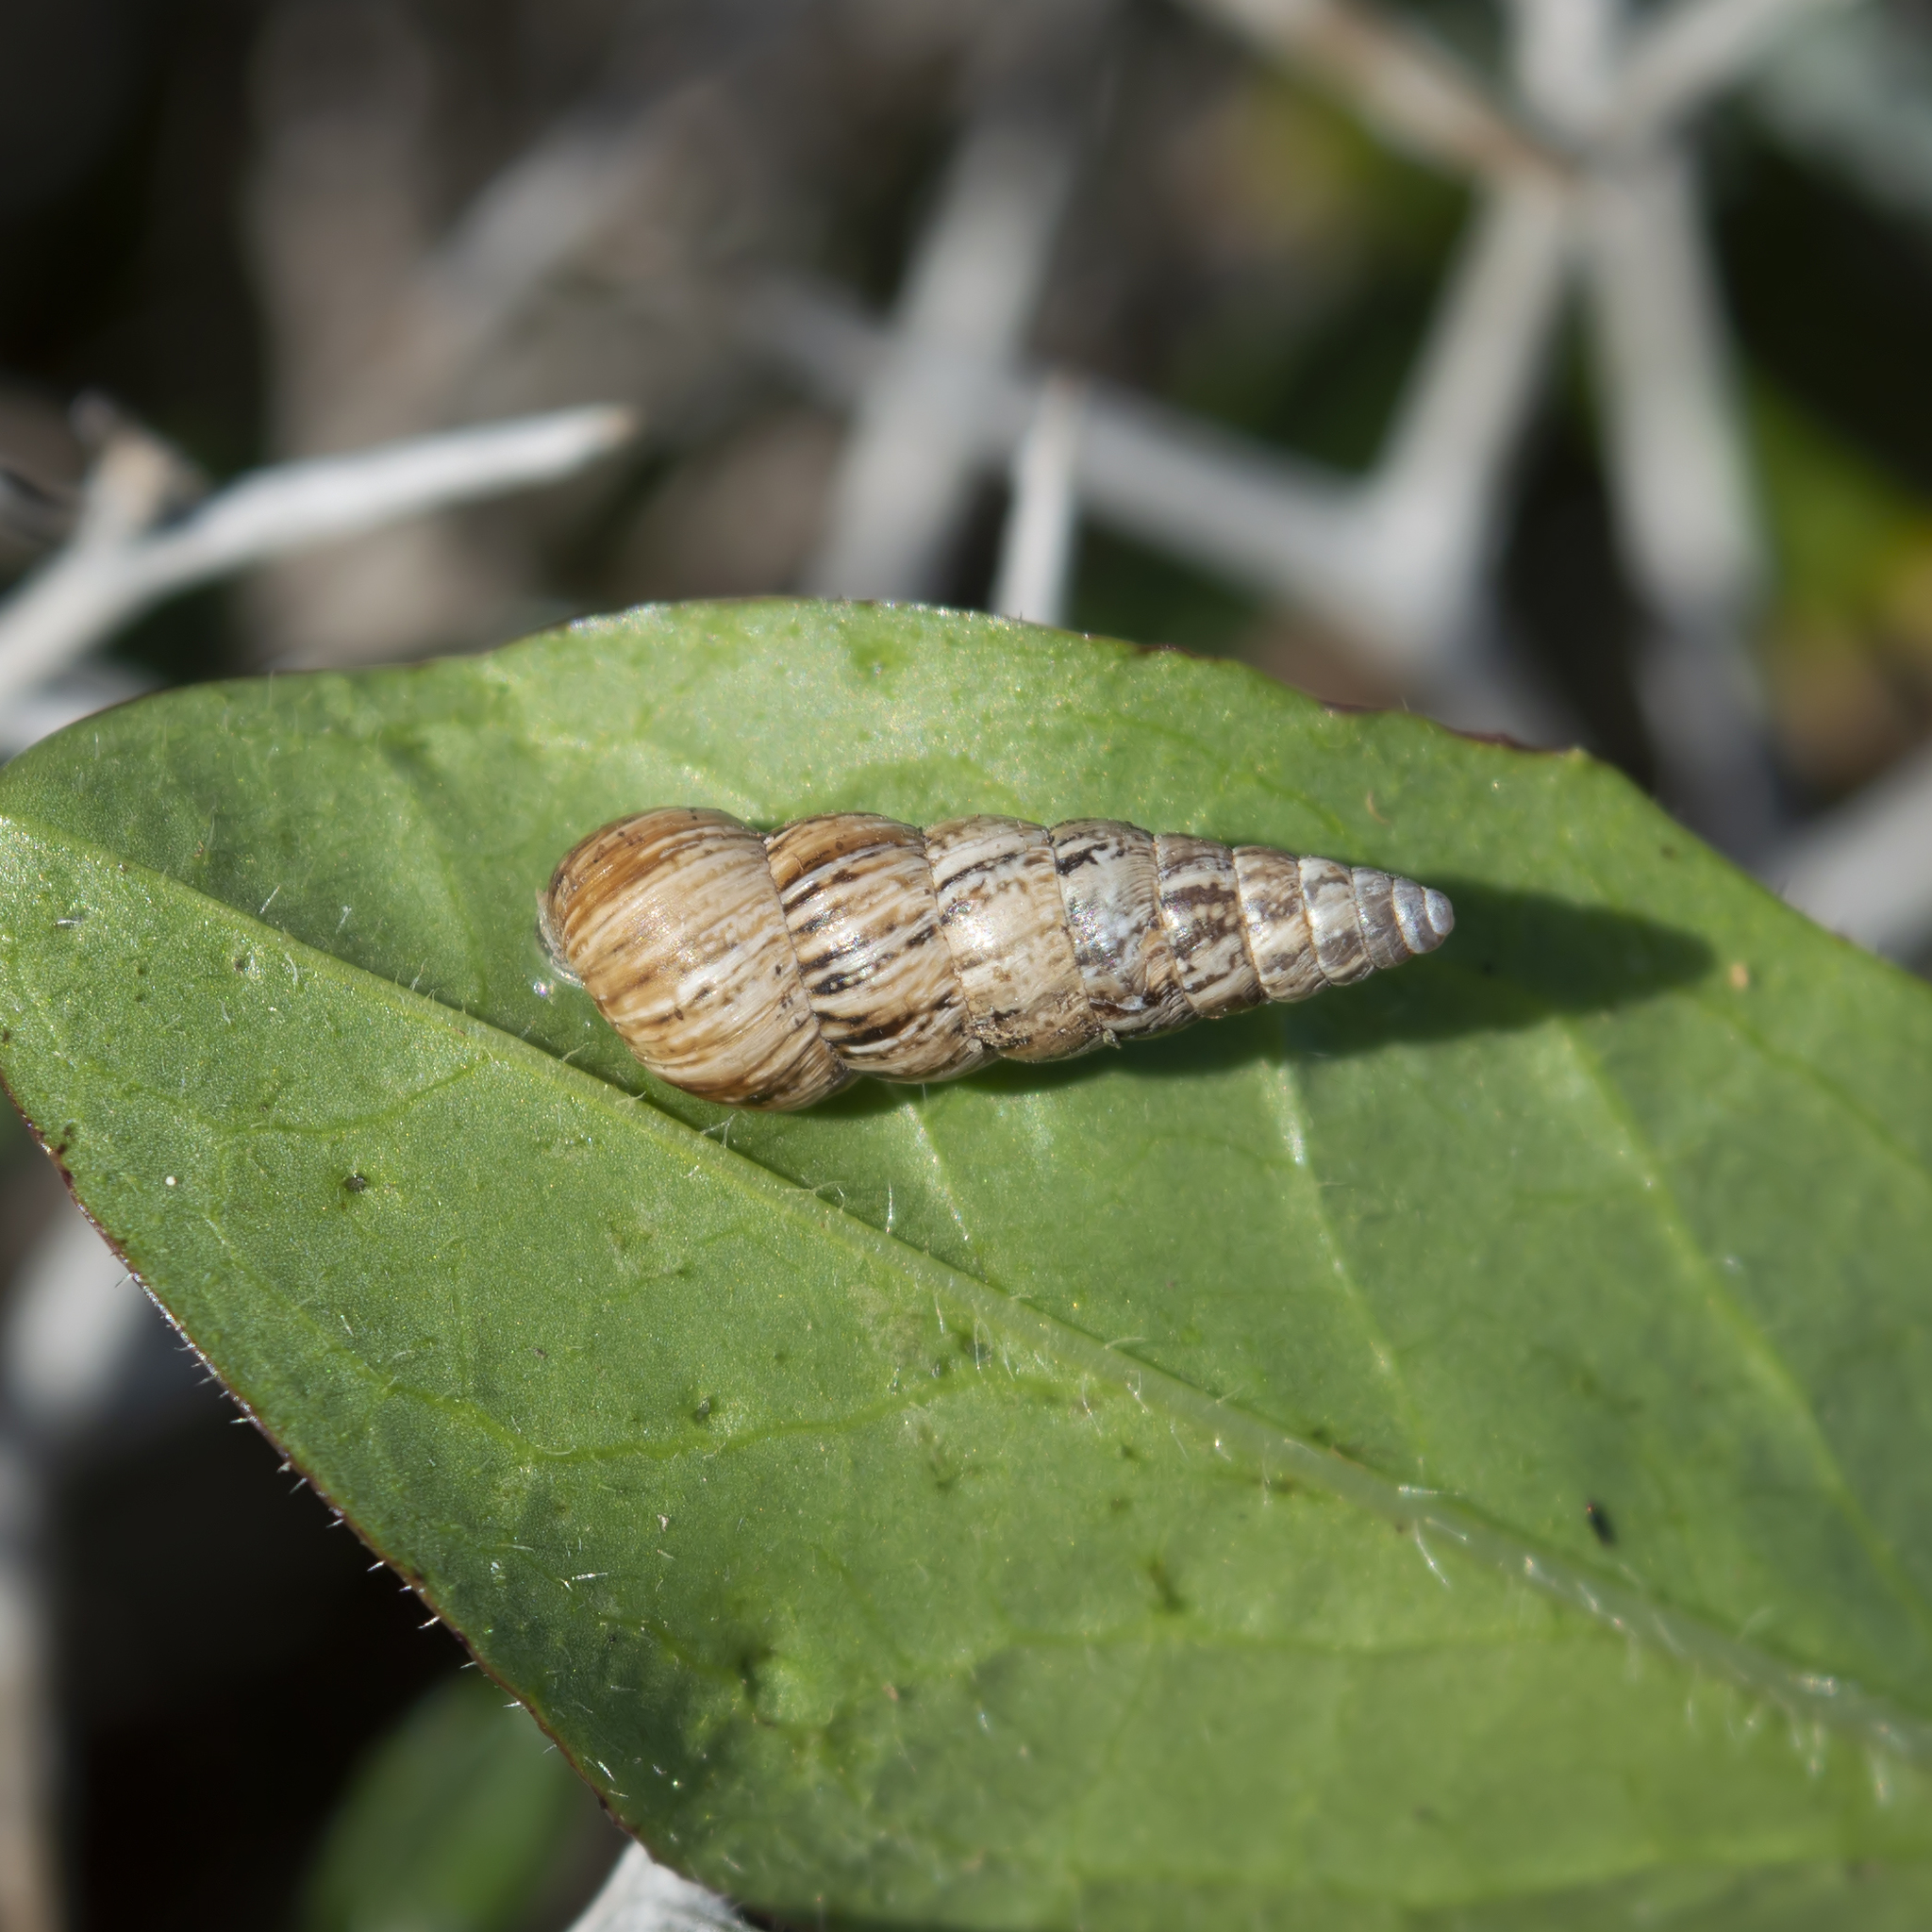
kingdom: Animalia
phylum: Mollusca
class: Gastropoda
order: Stylommatophora
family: Geomitridae
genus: Cochlicella
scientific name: Cochlicella acuta
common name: Pointed snail
